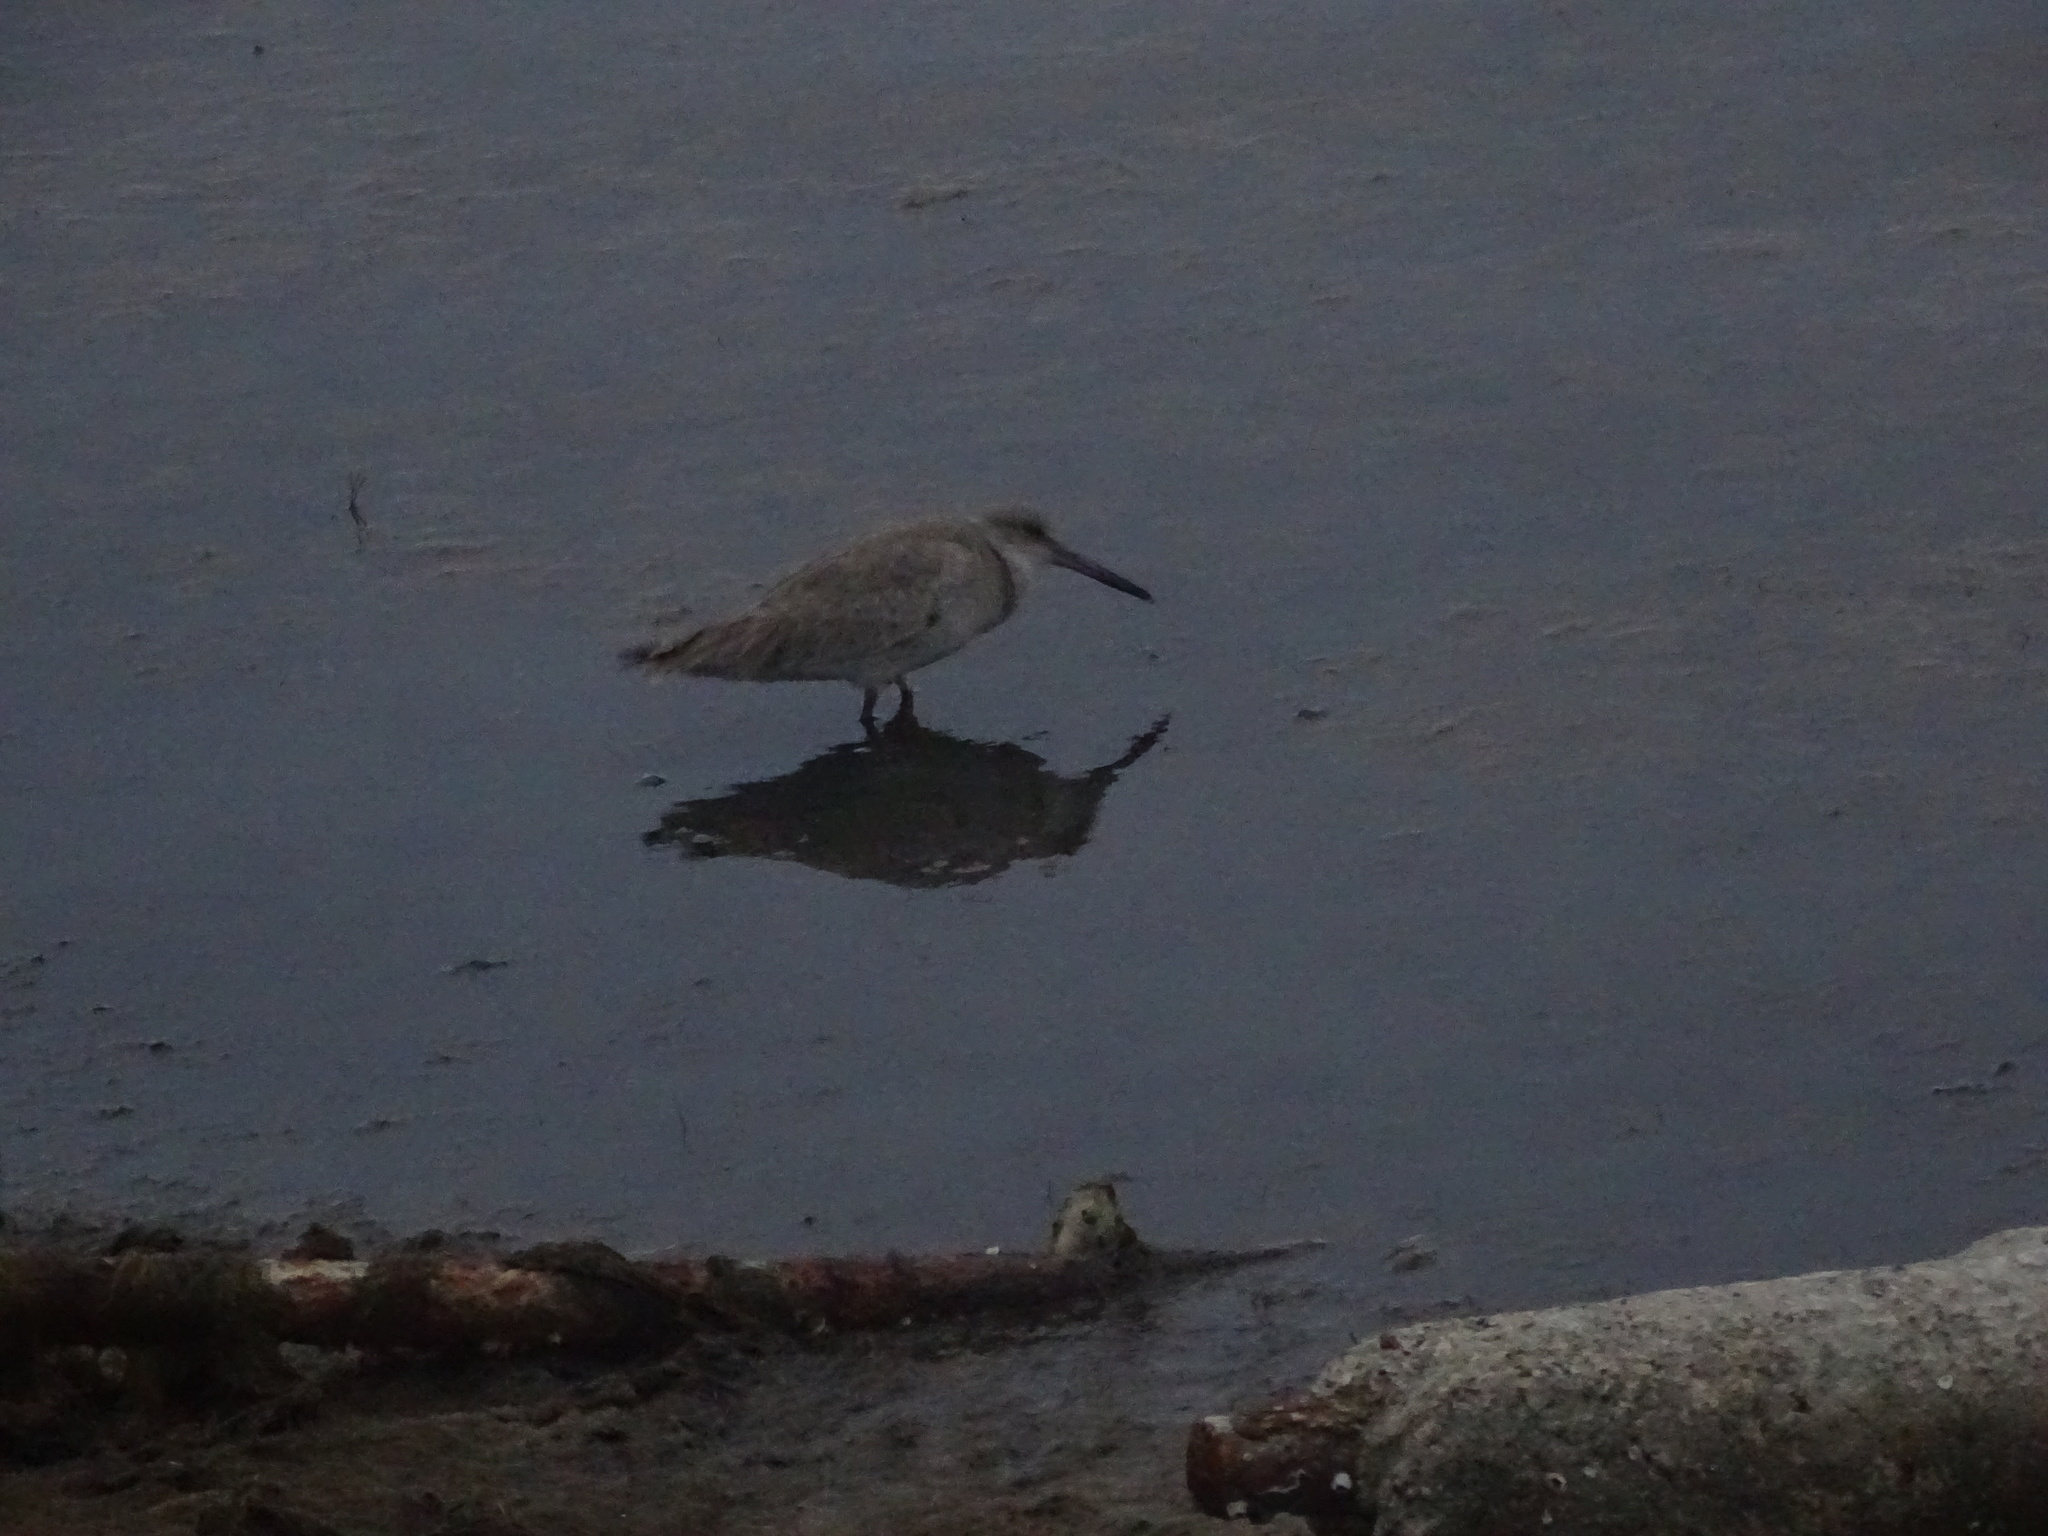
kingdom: Animalia
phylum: Chordata
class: Aves
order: Charadriiformes
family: Scolopacidae
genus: Tringa
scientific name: Tringa semipalmata
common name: Willet
